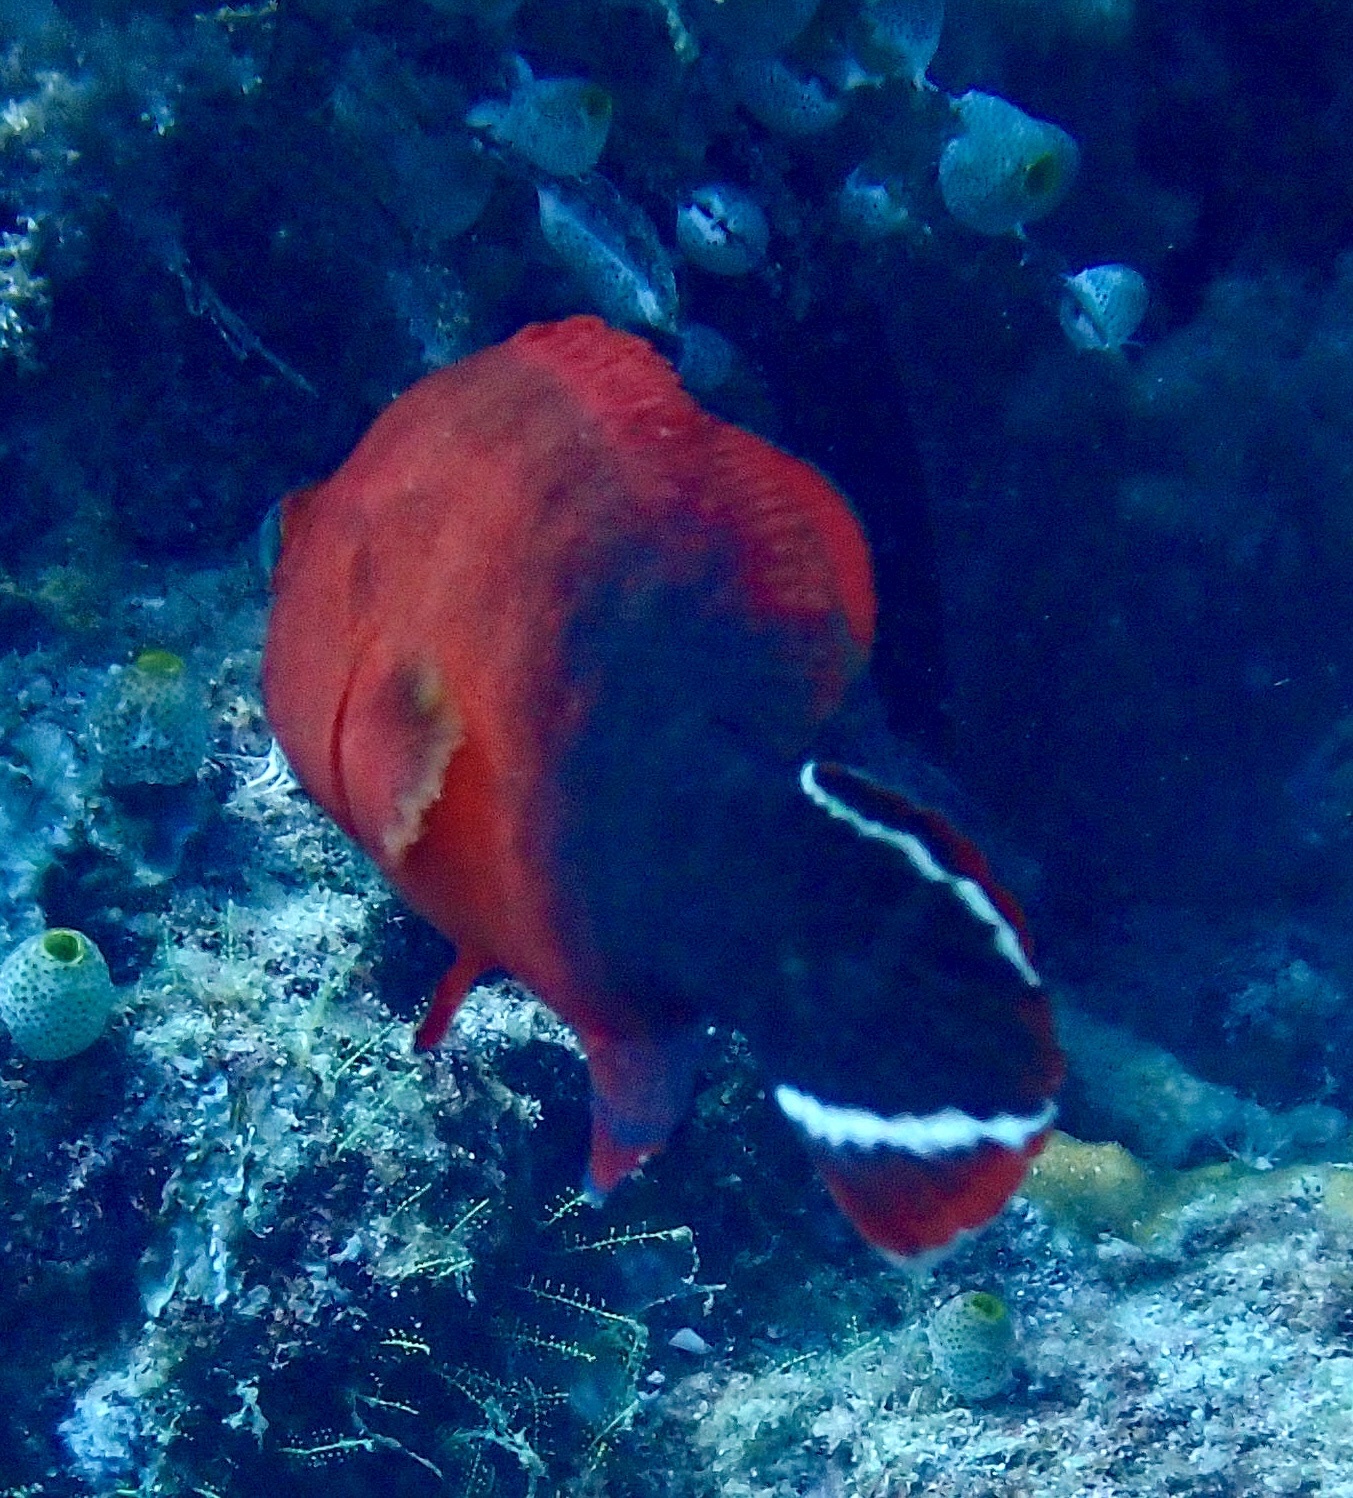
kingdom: Animalia
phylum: Chordata
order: Perciformes
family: Serranidae
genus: Cephalopholis
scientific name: Cephalopholis urodeta
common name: Darkfin hind
